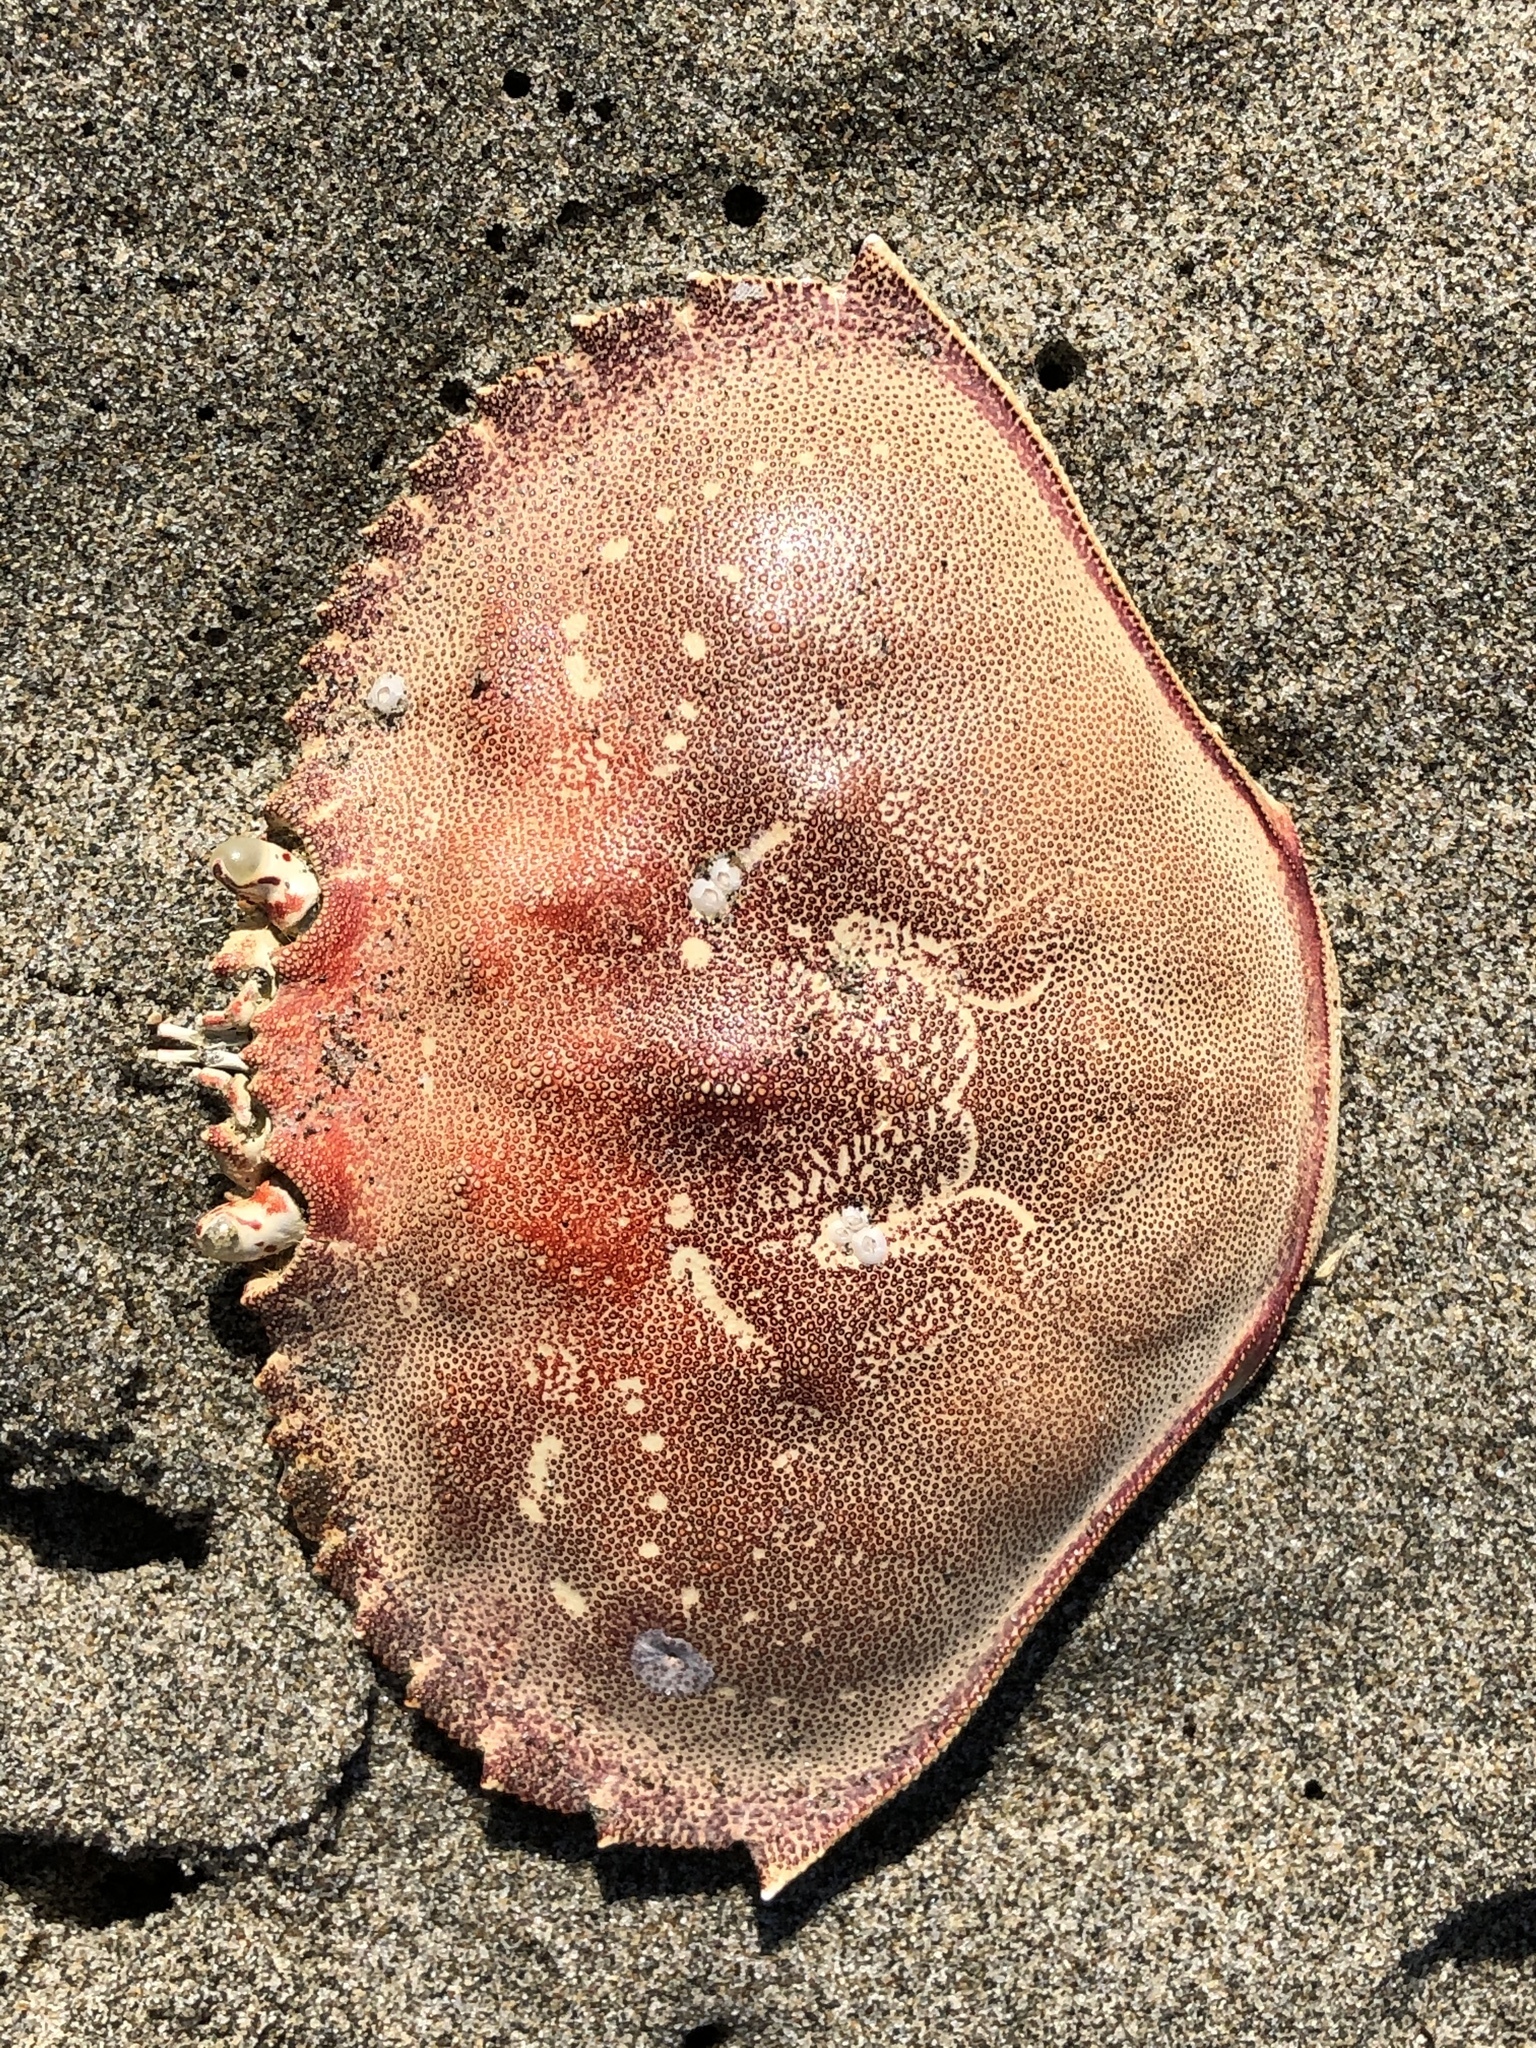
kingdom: Animalia
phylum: Arthropoda
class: Malacostraca
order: Decapoda
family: Cancridae
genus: Metacarcinus
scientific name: Metacarcinus magister
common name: Californian crab
